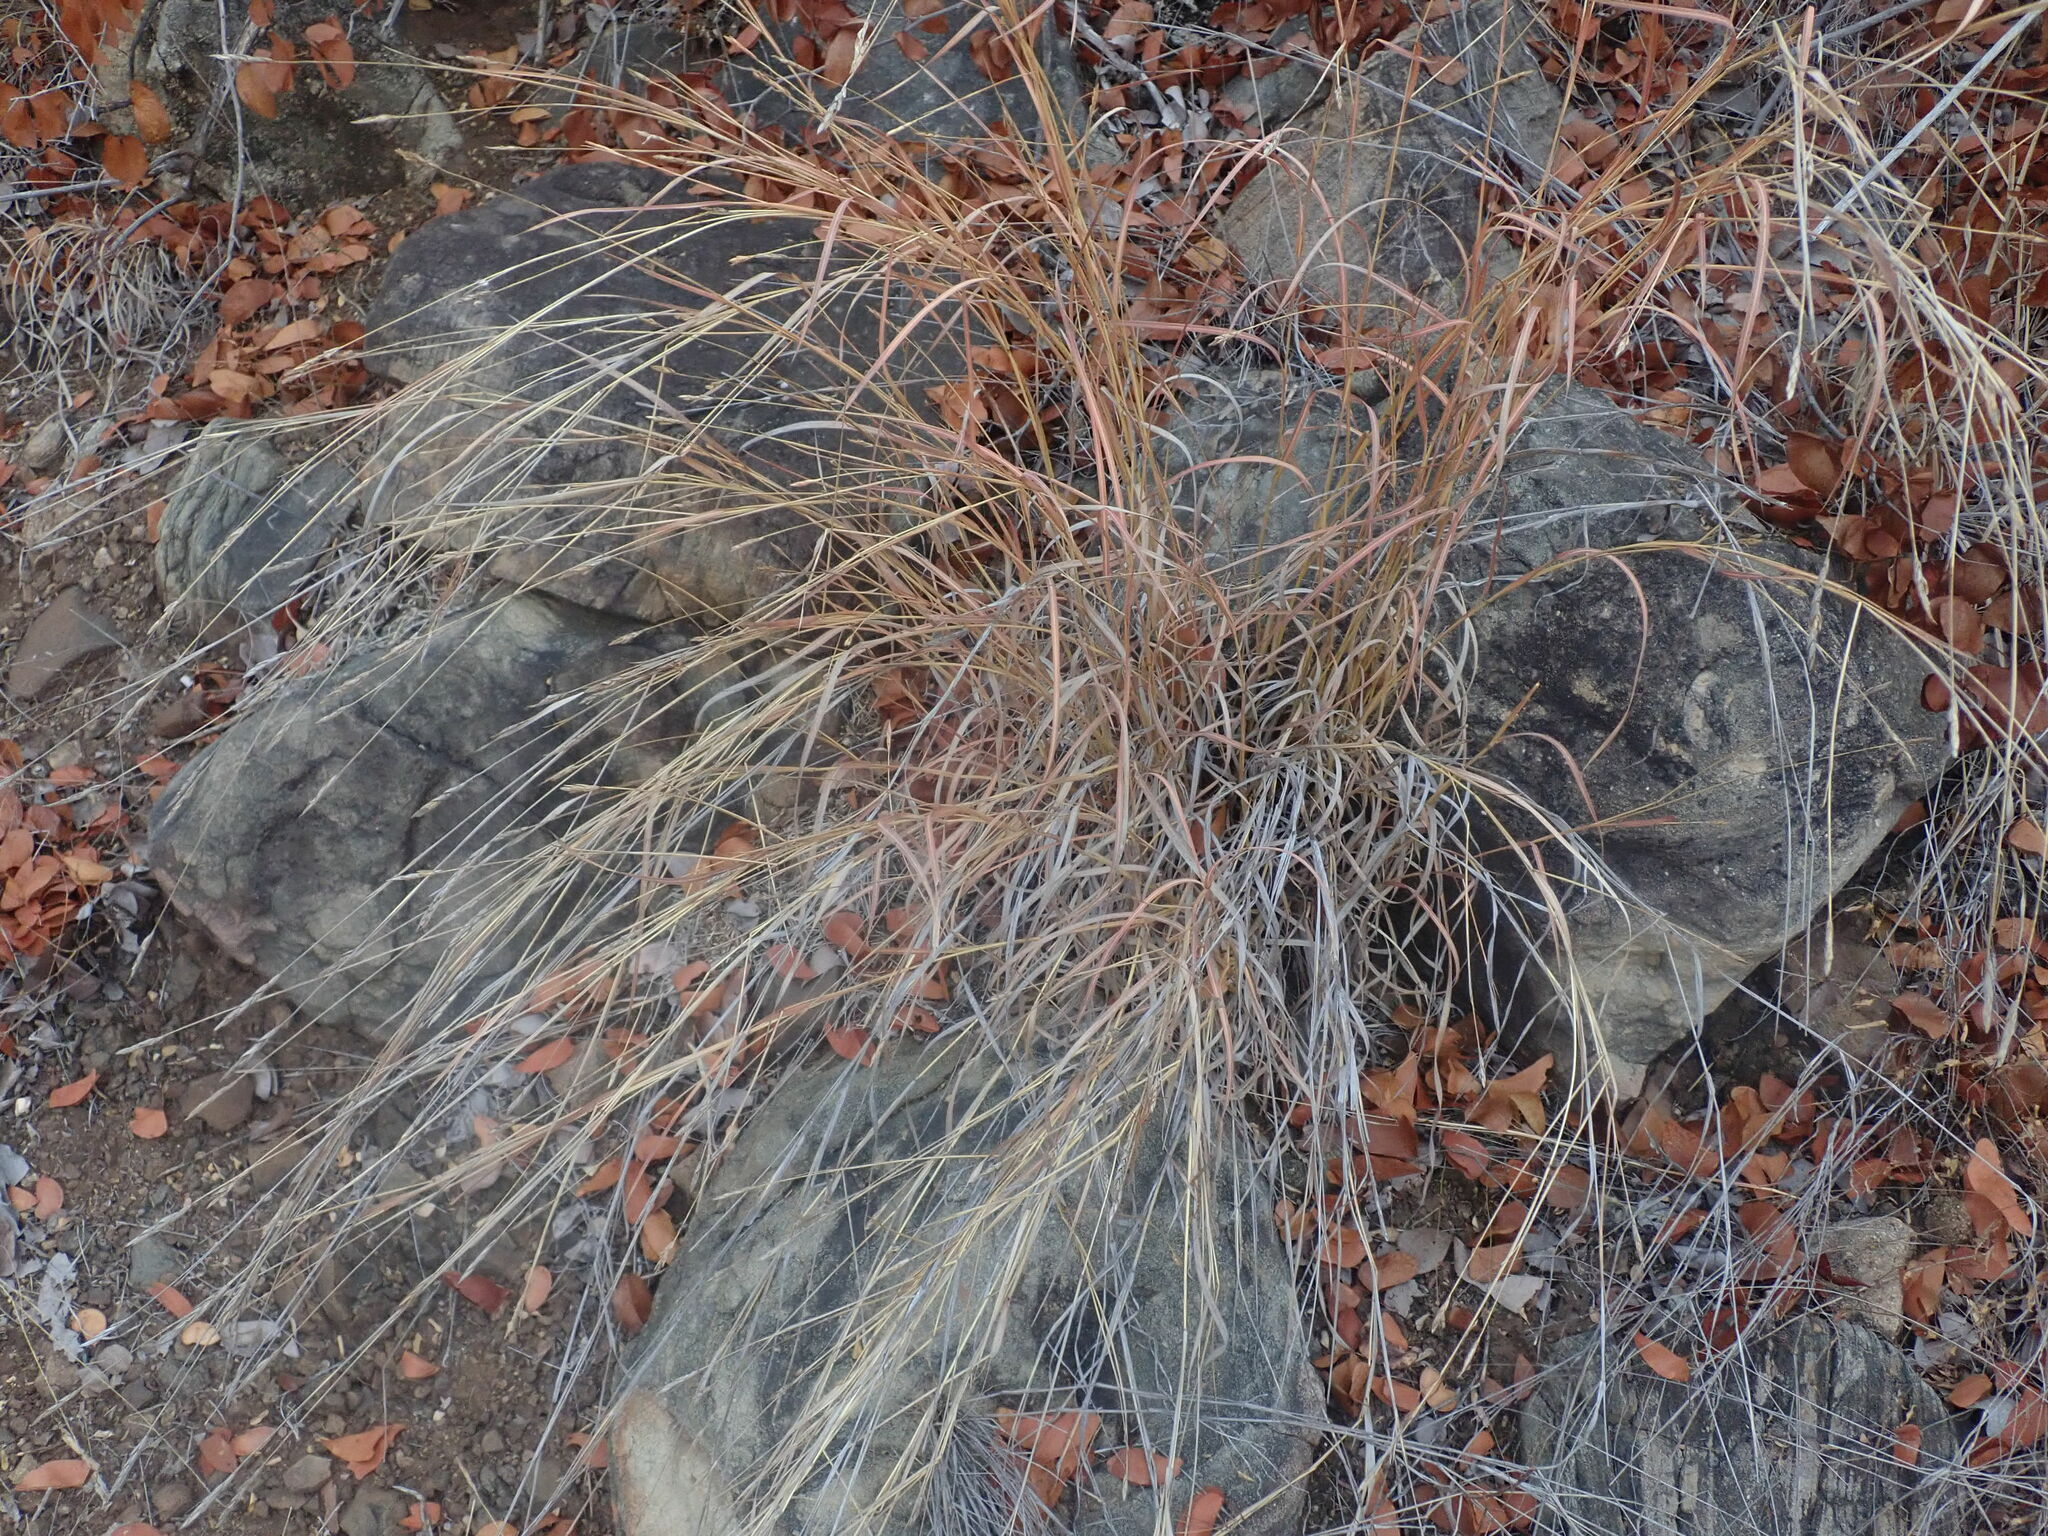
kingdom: Plantae
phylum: Tracheophyta
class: Liliopsida
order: Poales
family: Poaceae
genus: Heteropogon
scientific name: Heteropogon contortus
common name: Tanglehead
